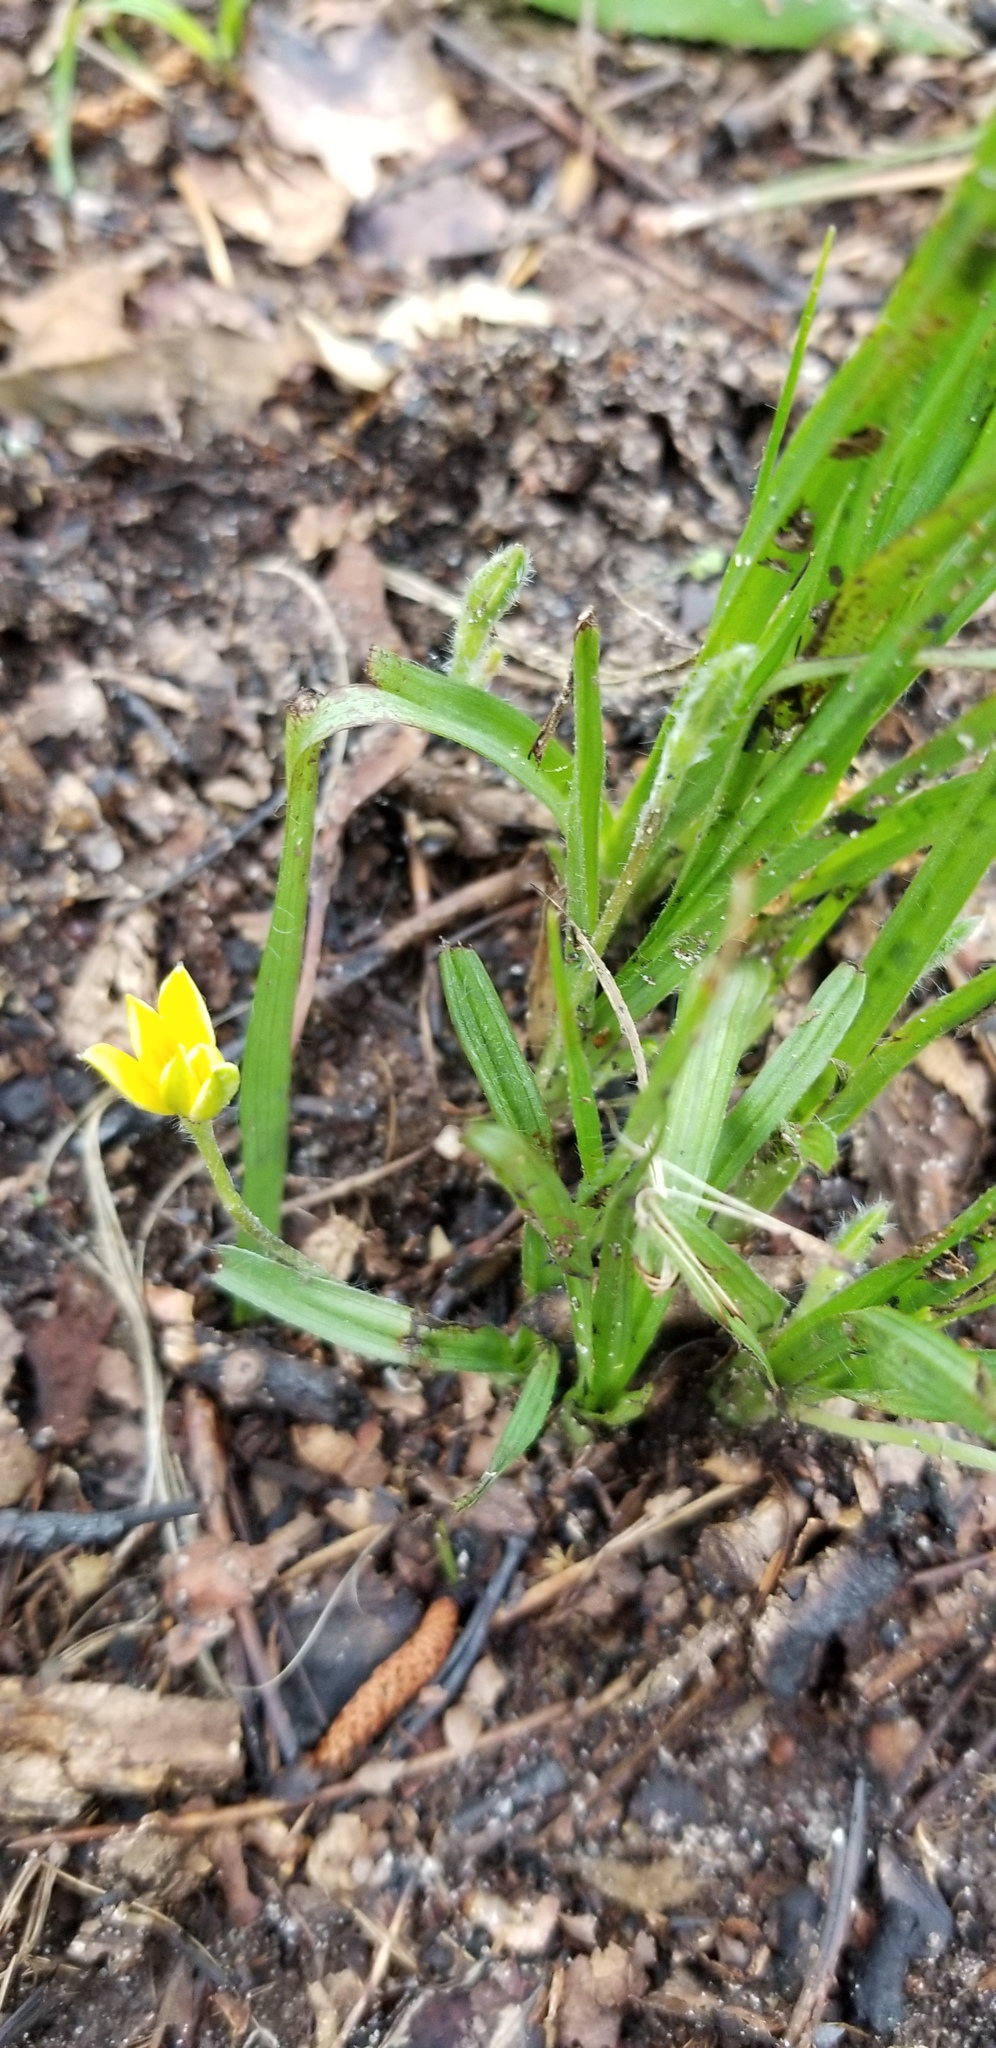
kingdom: Plantae
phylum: Tracheophyta
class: Liliopsida
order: Asparagales
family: Hypoxidaceae
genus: Hypoxis
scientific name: Hypoxis hirsuta
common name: Common goldstar
